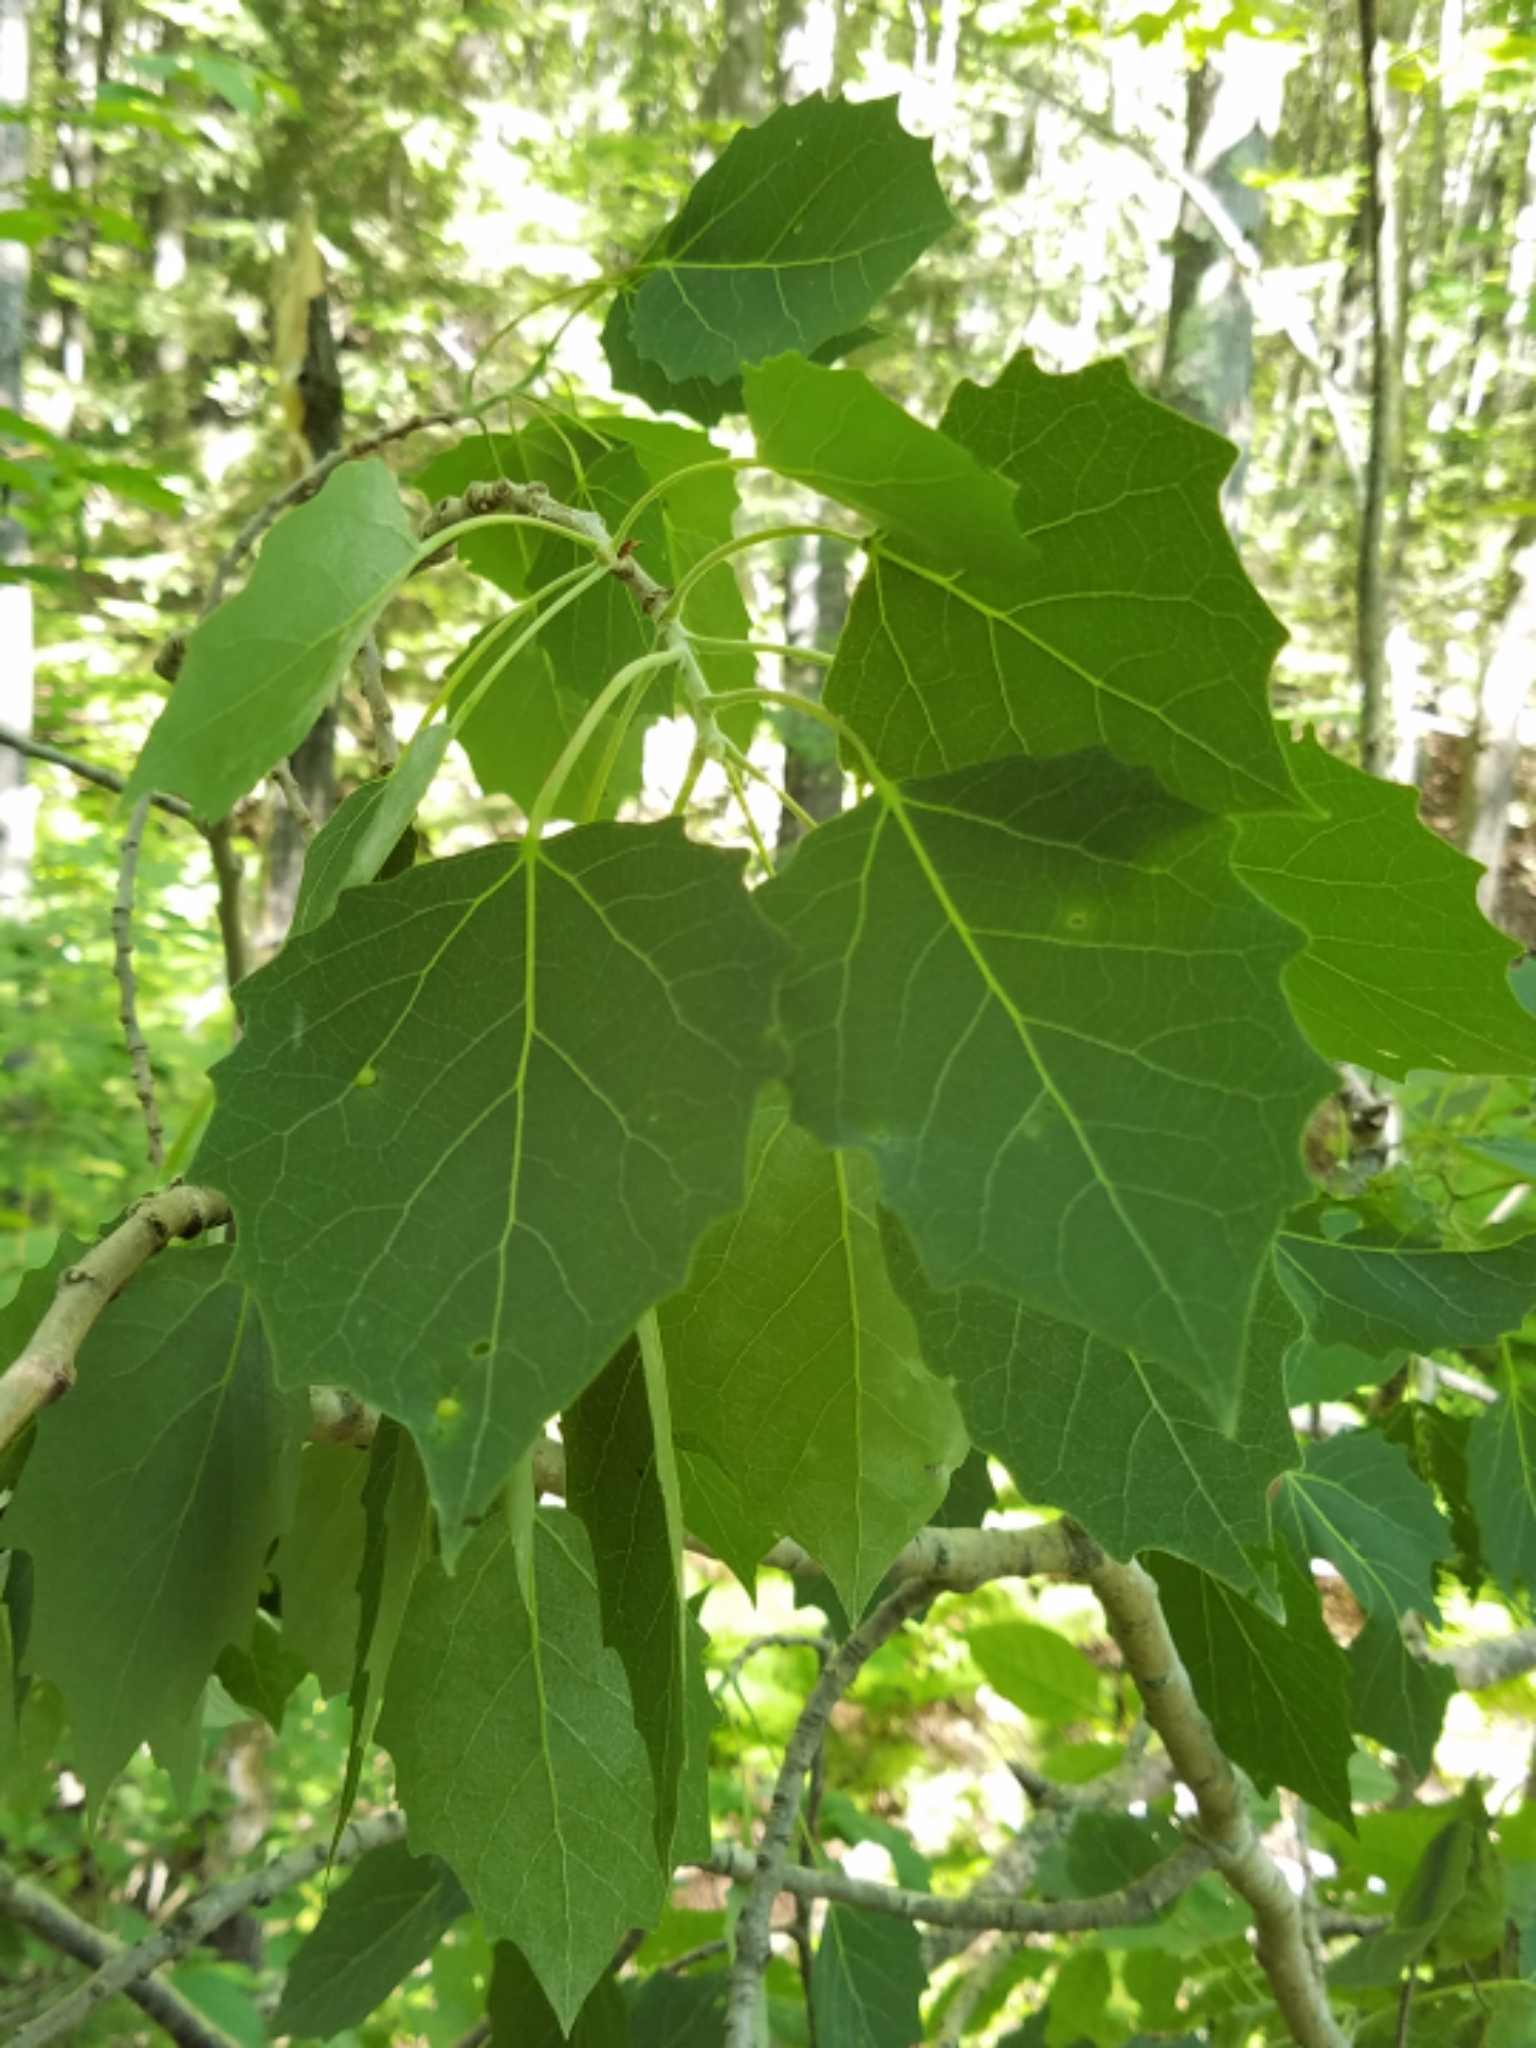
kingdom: Plantae
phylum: Tracheophyta
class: Magnoliopsida
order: Malpighiales
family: Salicaceae
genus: Populus
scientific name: Populus grandidentata
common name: Bigtooth aspen
